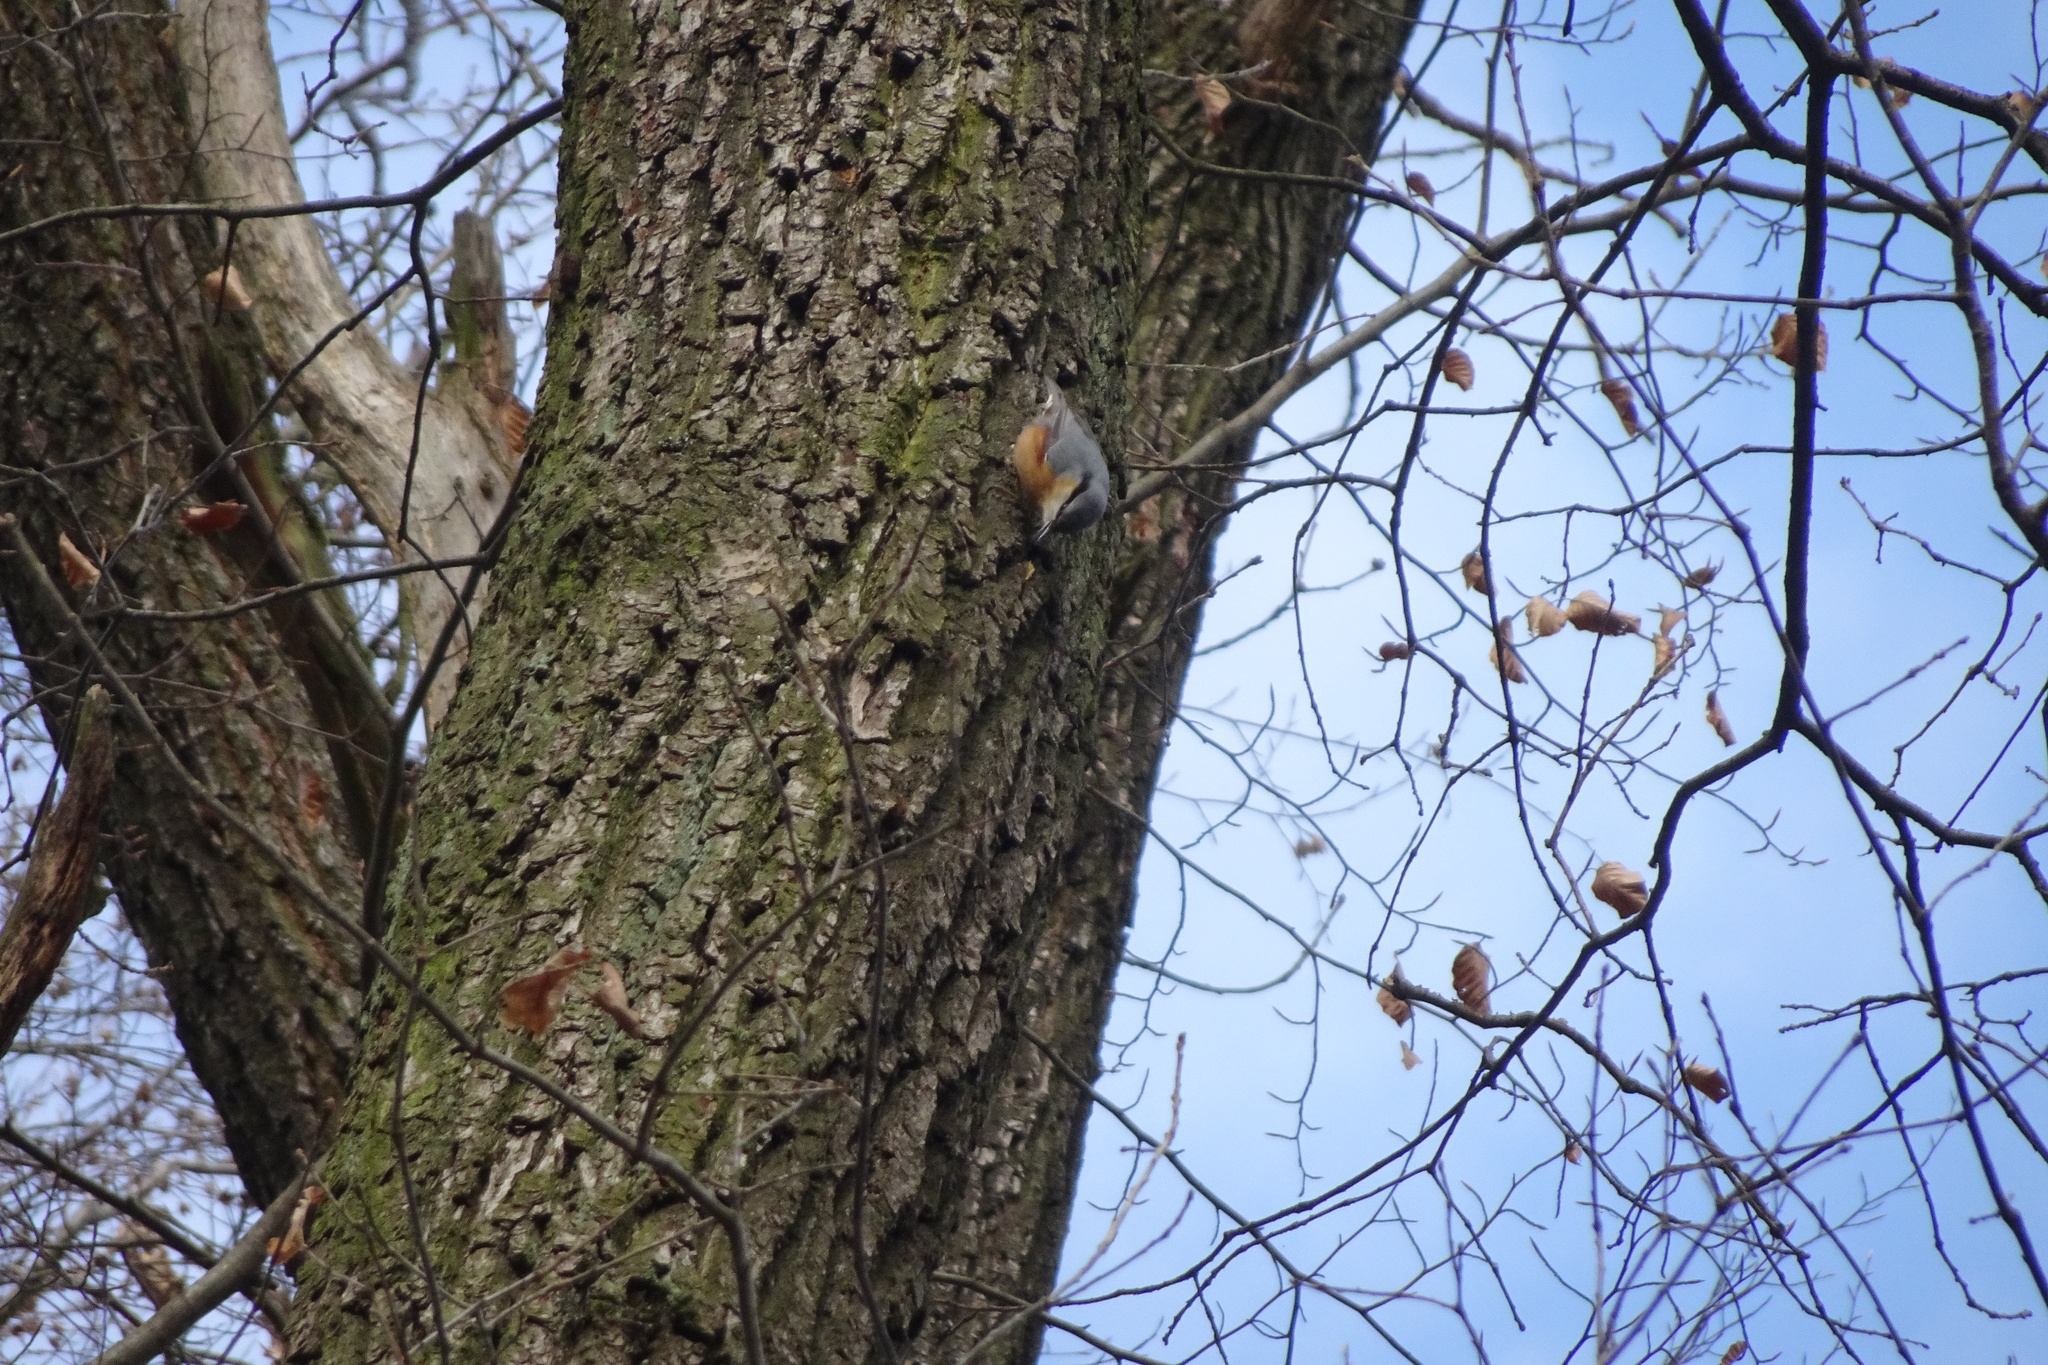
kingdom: Animalia
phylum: Chordata
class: Aves
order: Passeriformes
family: Sittidae
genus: Sitta
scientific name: Sitta europaea
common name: Eurasian nuthatch
